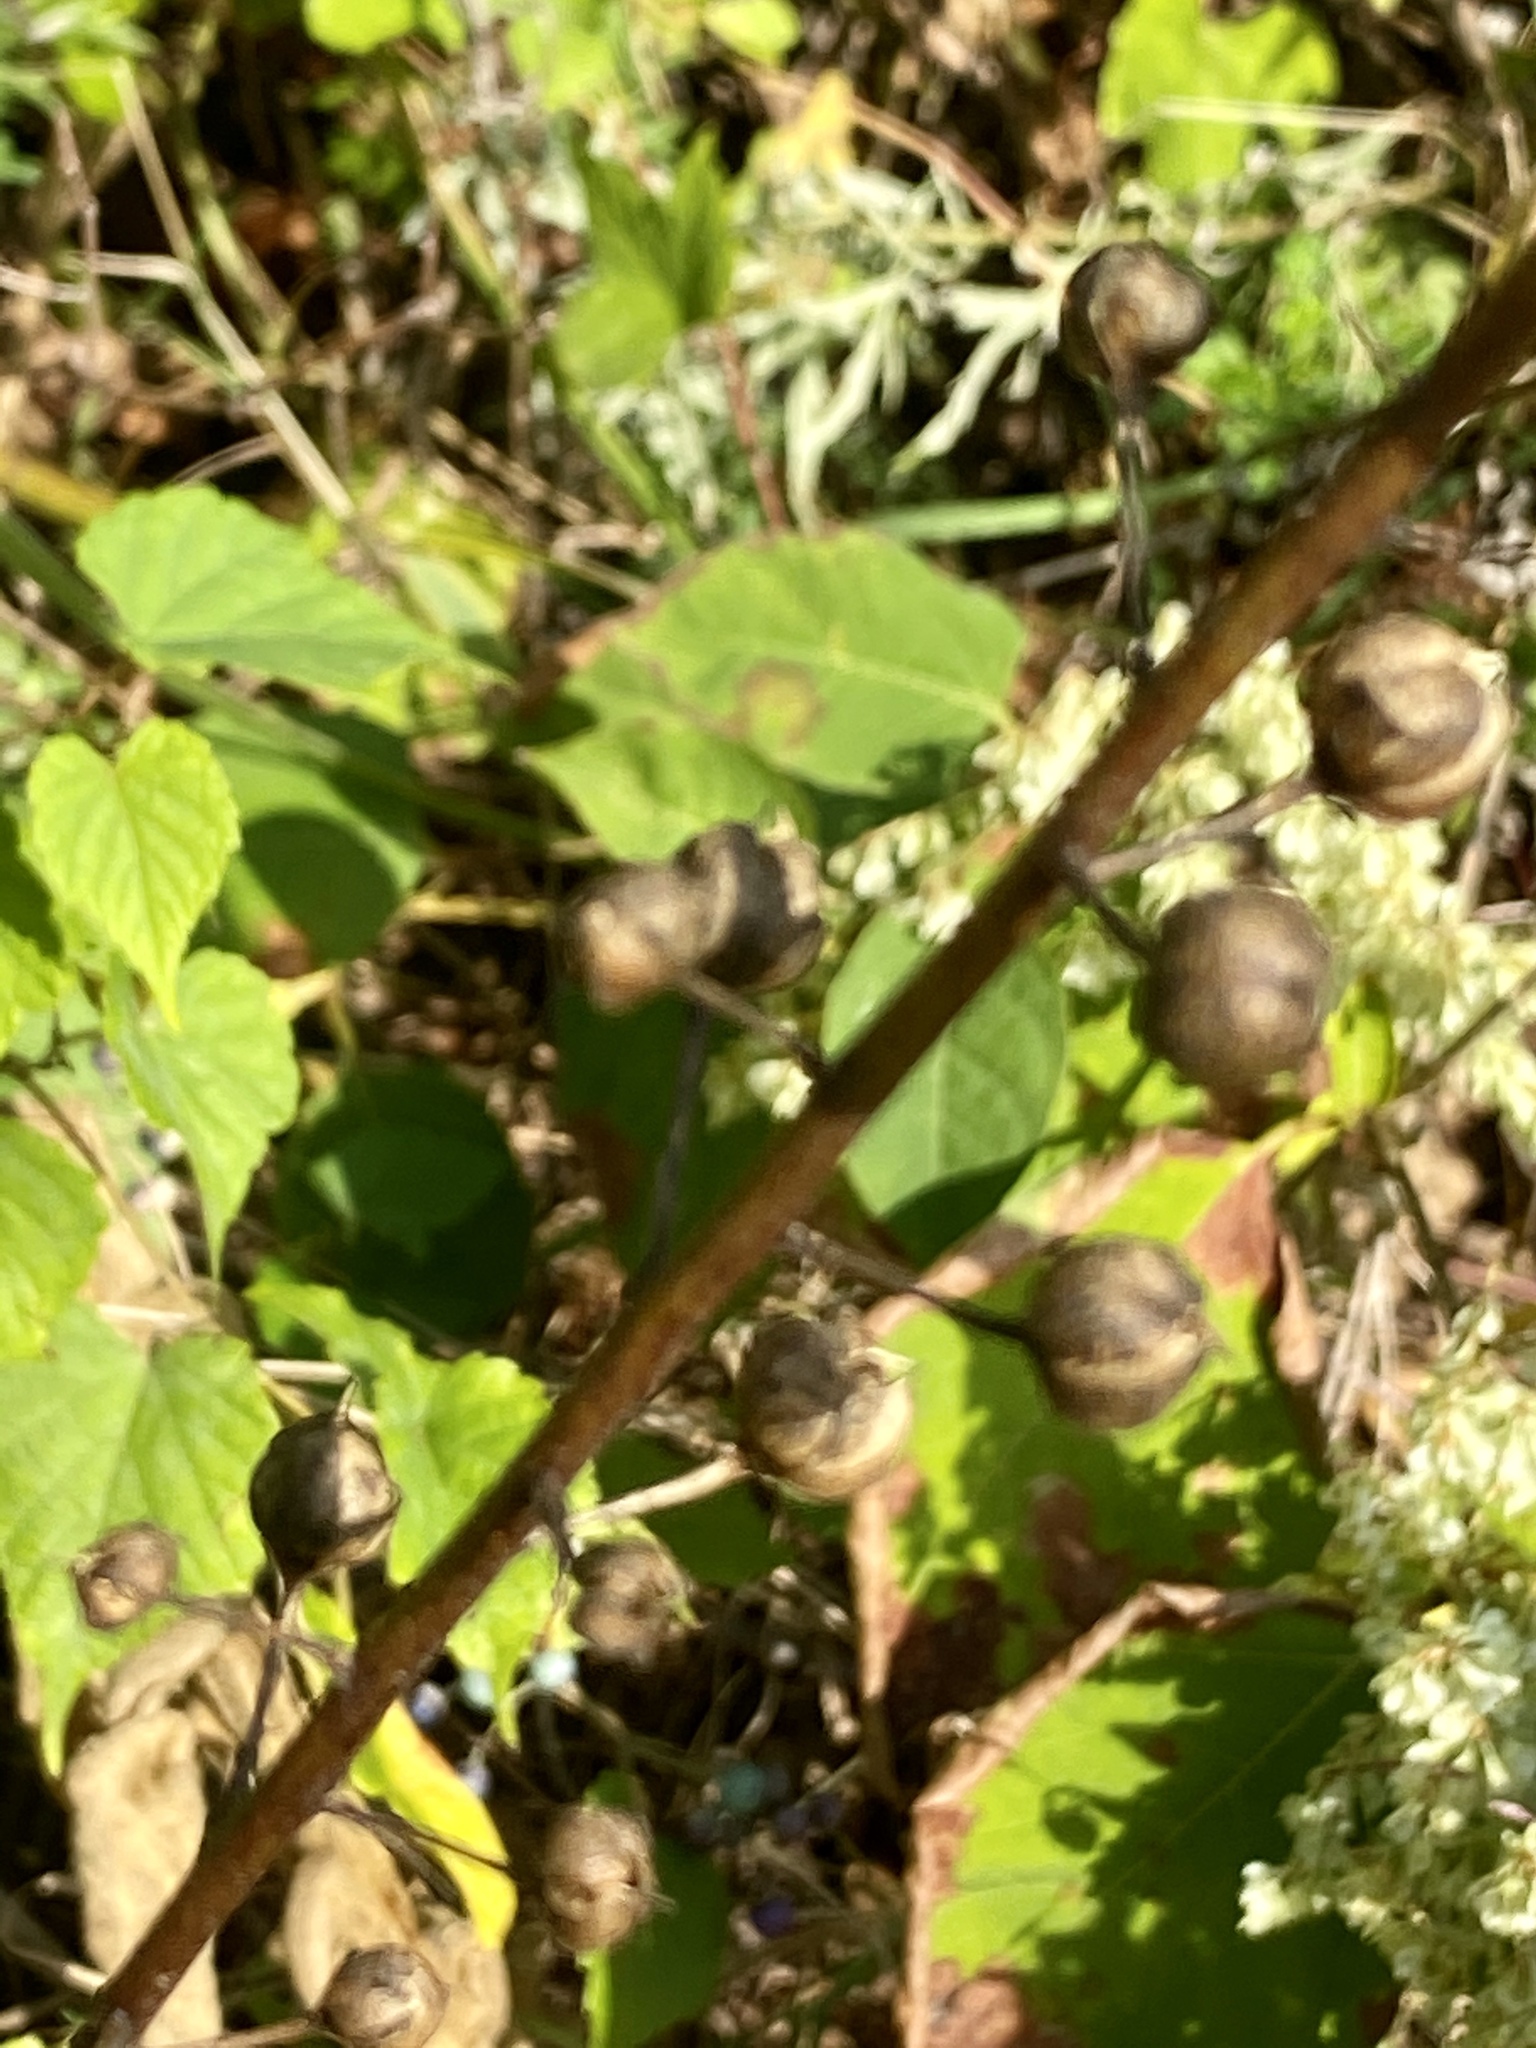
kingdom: Plantae
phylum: Tracheophyta
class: Magnoliopsida
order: Lamiales
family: Scrophulariaceae
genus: Verbascum
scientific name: Verbascum blattaria
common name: Moth mullein
